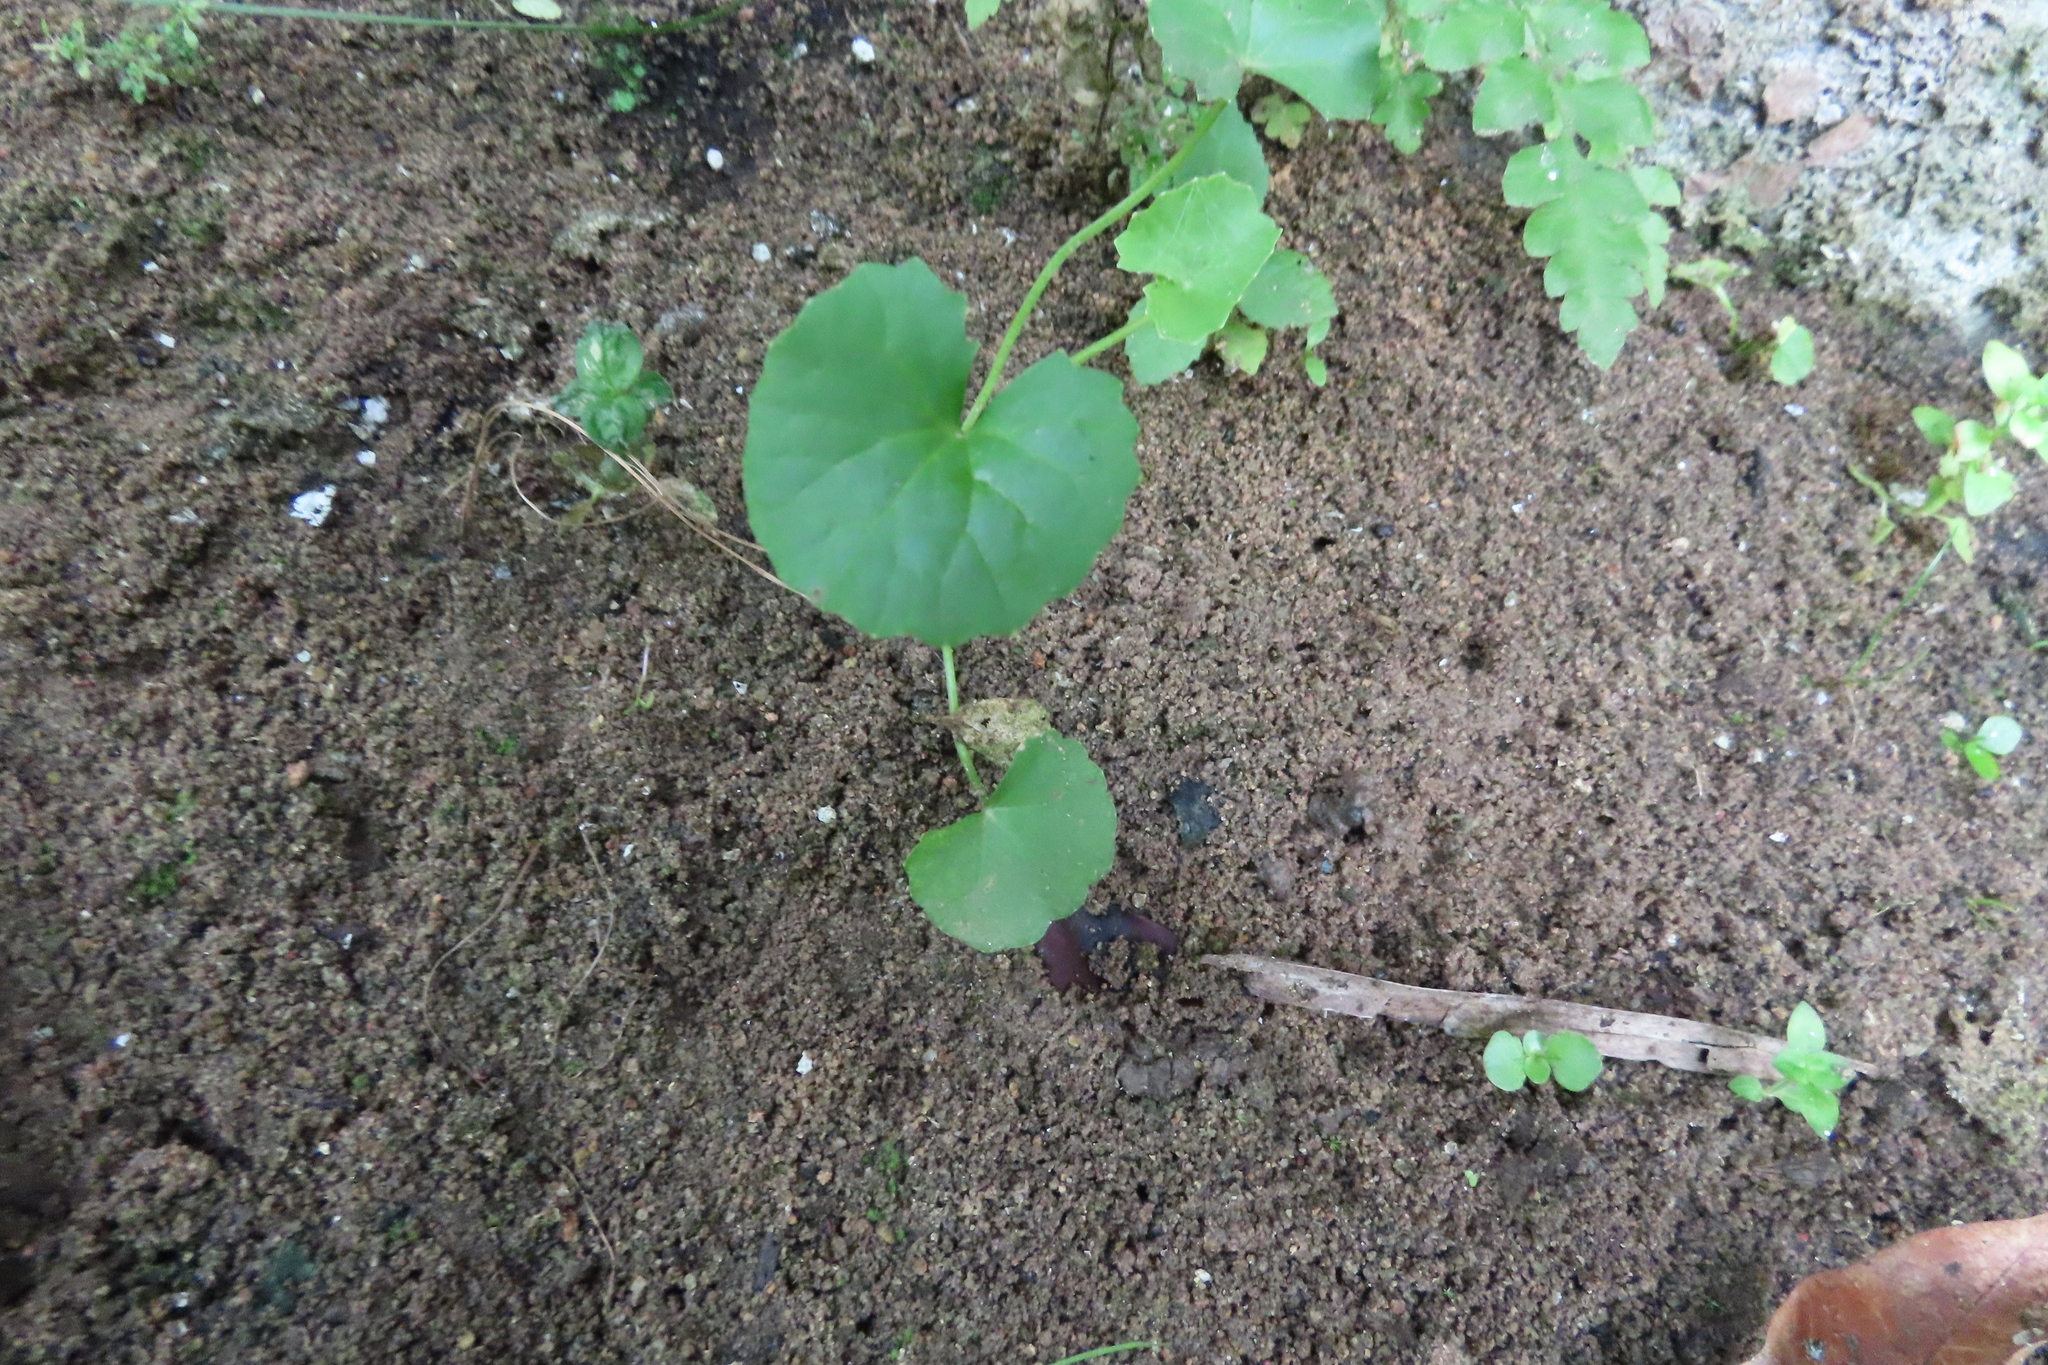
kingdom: Plantae
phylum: Tracheophyta
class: Magnoliopsida
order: Apiales
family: Apiaceae
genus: Centella
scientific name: Centella asiatica
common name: Spadeleaf
